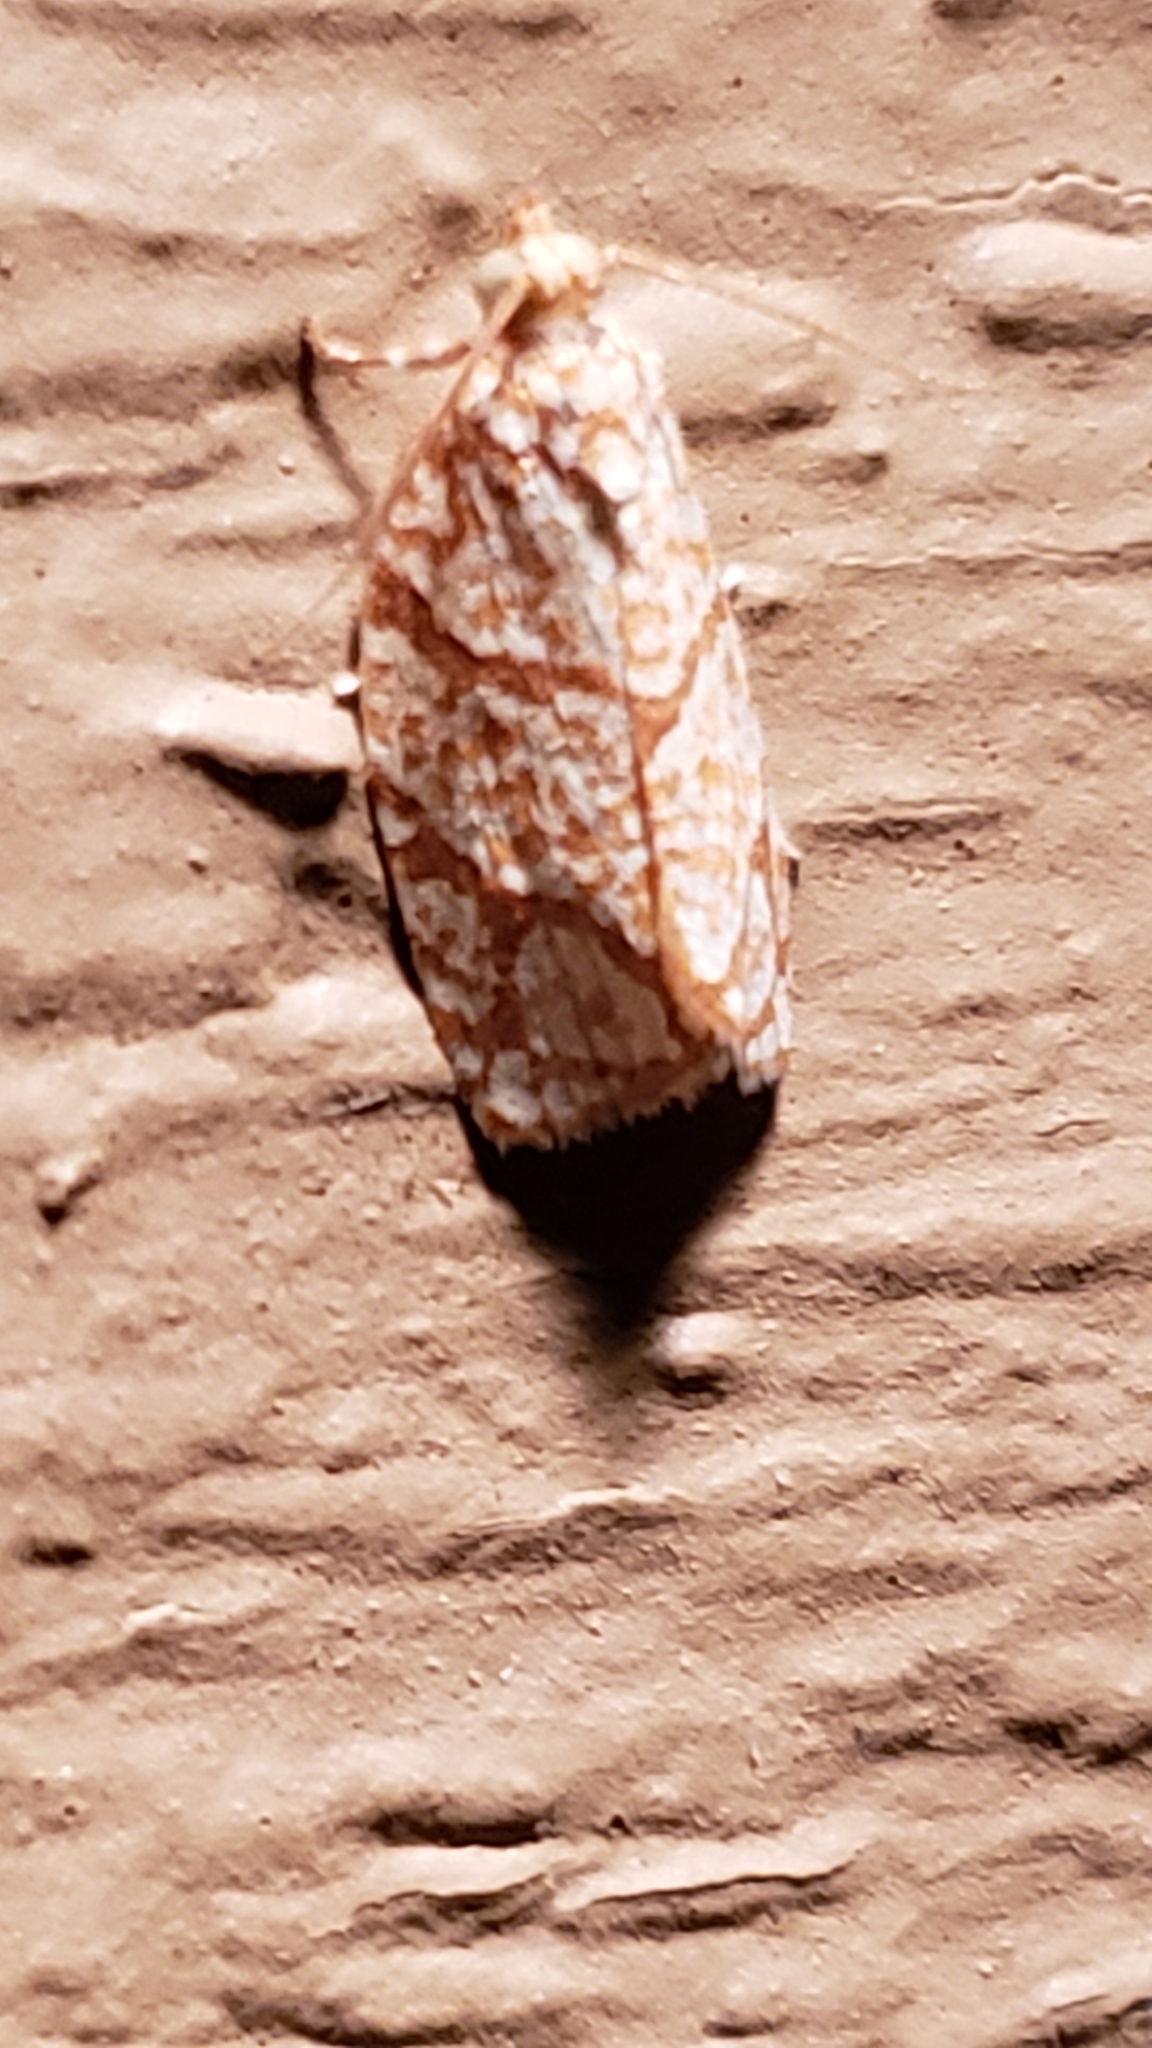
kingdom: Animalia
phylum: Arthropoda
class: Insecta
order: Lepidoptera
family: Tortricidae
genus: Argyrotaenia
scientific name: Argyrotaenia quercifoliana
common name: Yellow-winged oak leafroller moth
